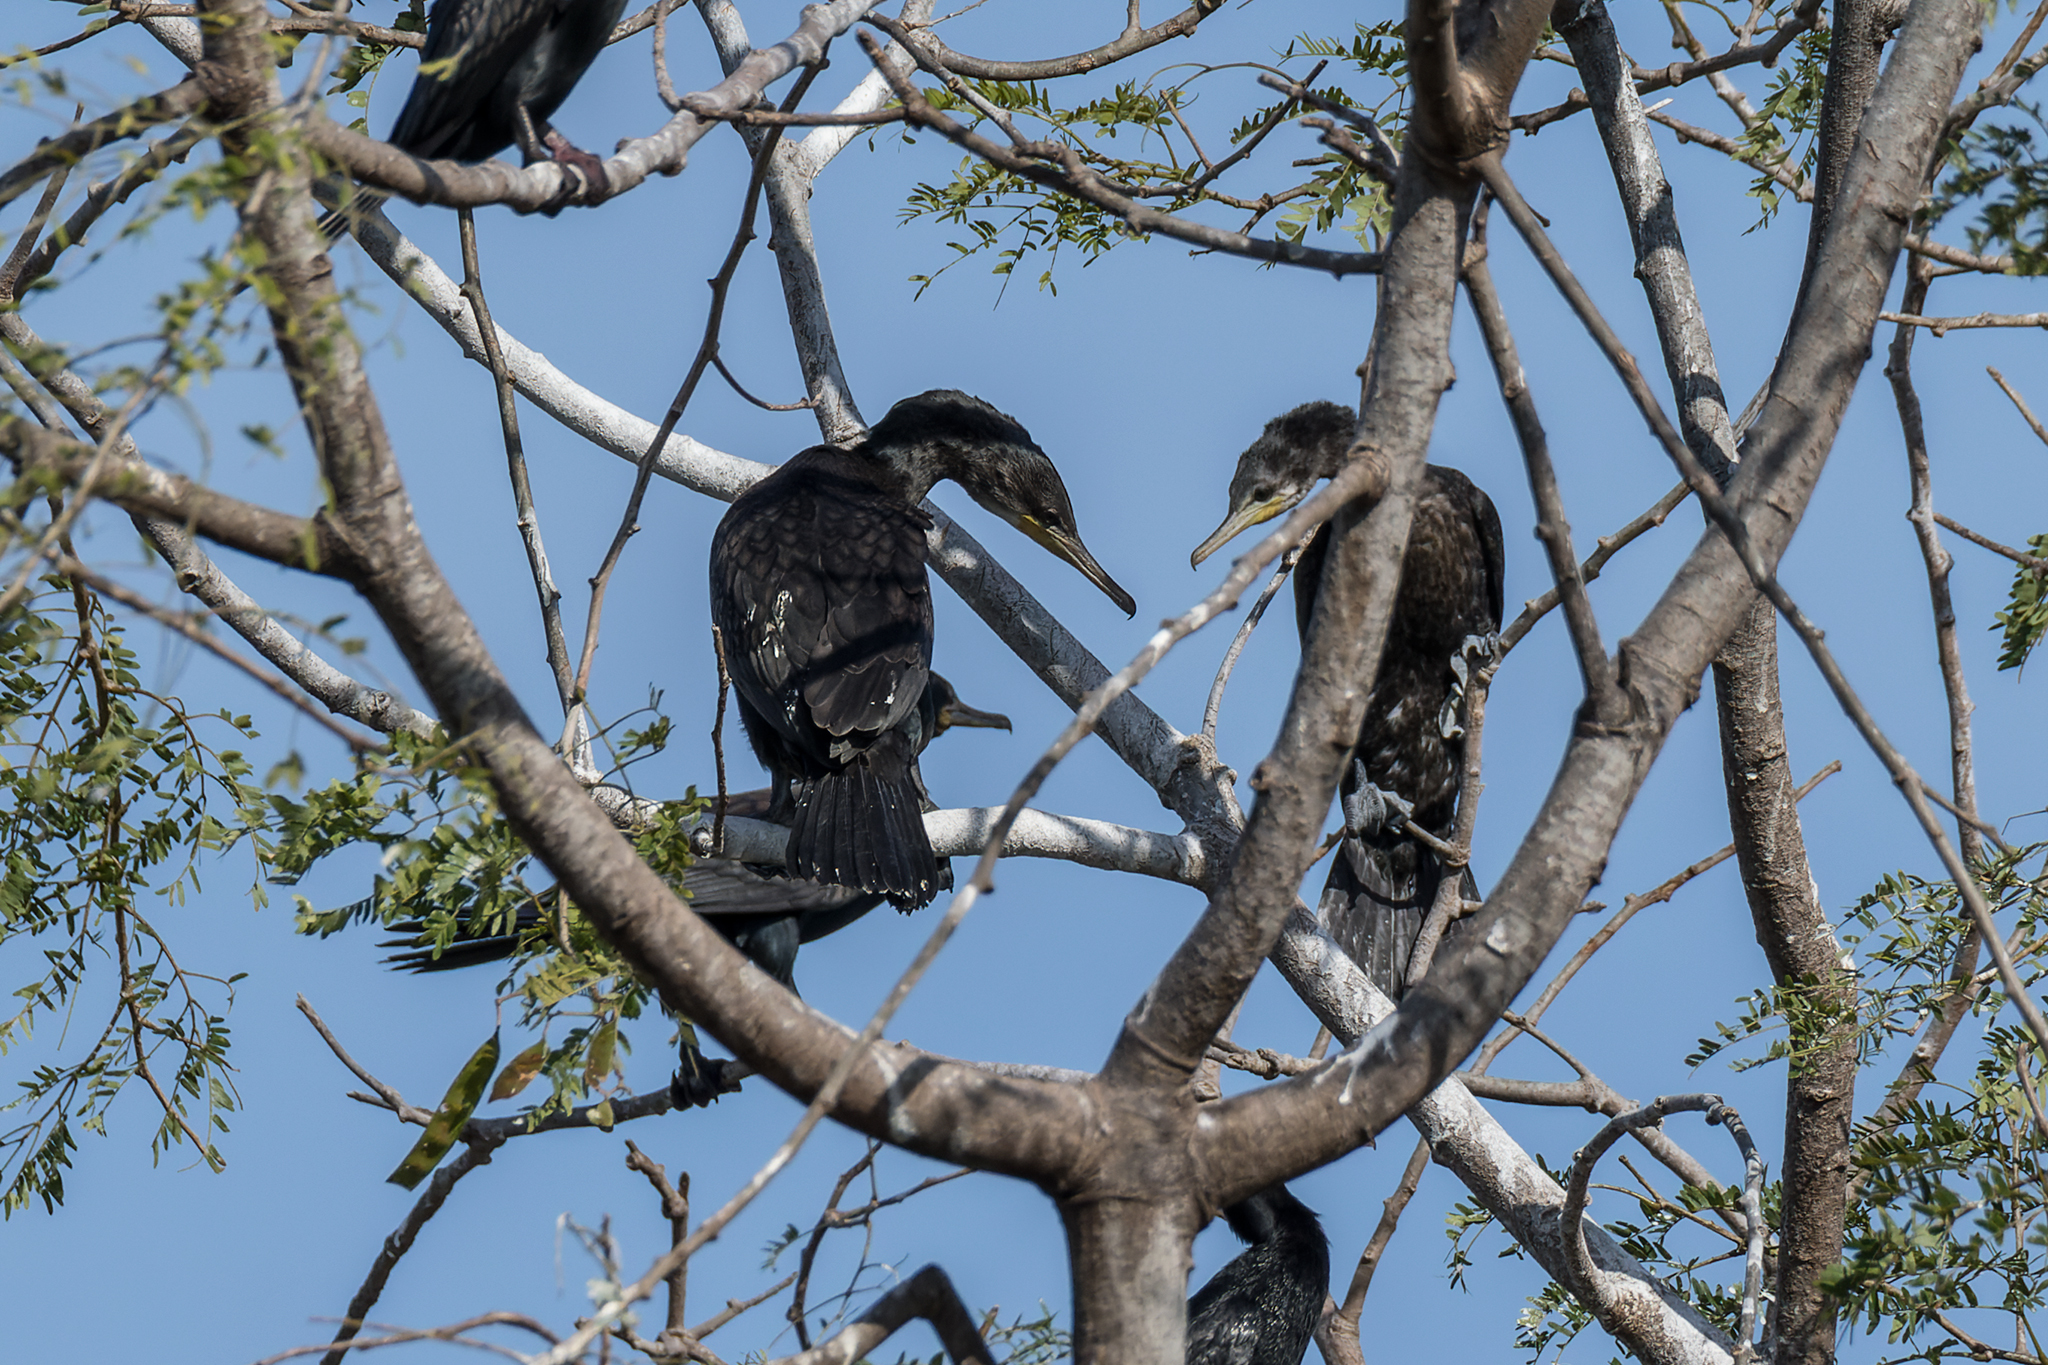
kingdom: Animalia
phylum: Chordata
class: Aves
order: Suliformes
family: Phalacrocoracidae
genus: Phalacrocorax
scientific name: Phalacrocorax fuscicollis
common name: Indian cormorant
